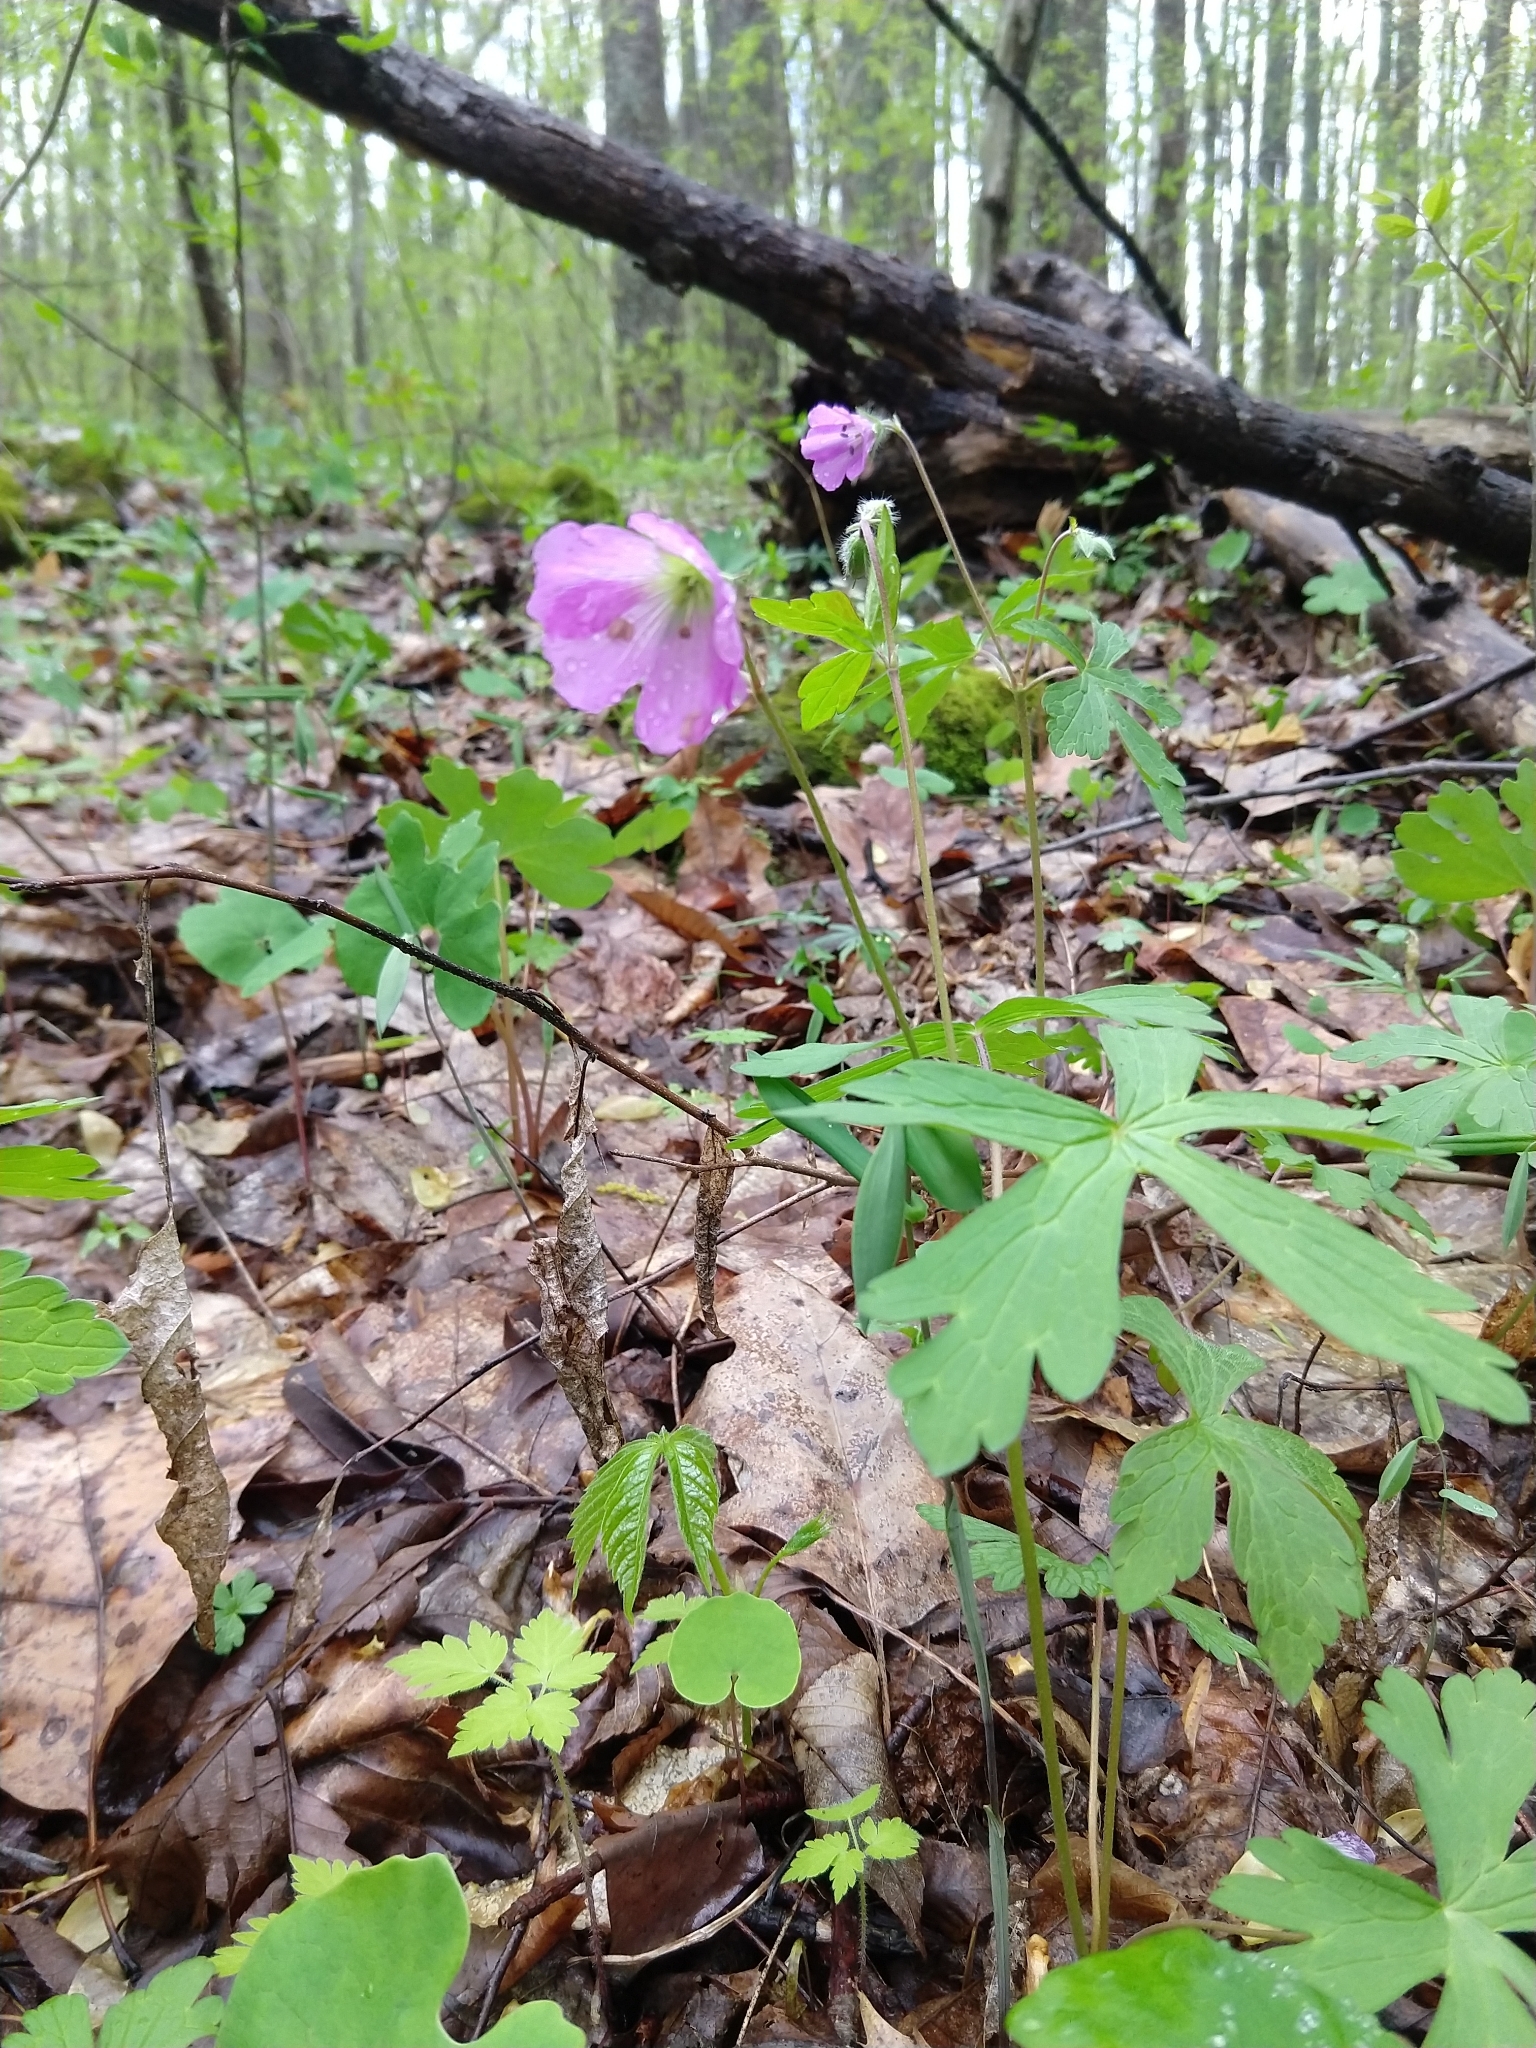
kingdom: Plantae
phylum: Tracheophyta
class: Magnoliopsida
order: Geraniales
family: Geraniaceae
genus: Geranium
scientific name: Geranium maculatum
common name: Spotted geranium
